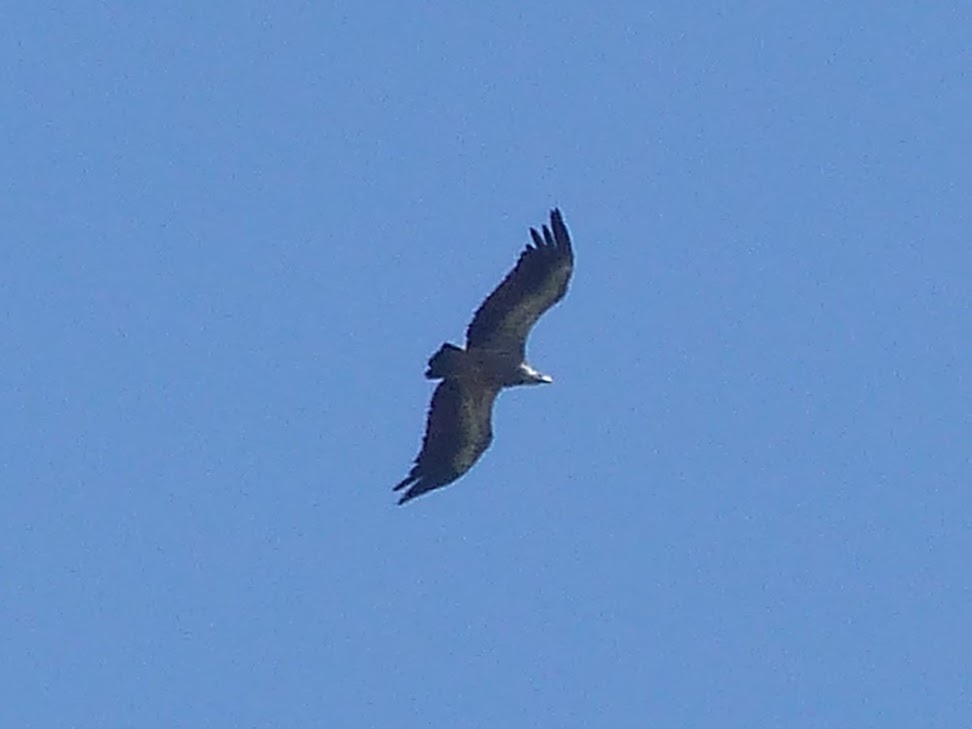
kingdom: Animalia
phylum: Chordata
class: Aves
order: Accipitriformes
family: Accipitridae
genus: Gyps
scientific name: Gyps fulvus
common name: Griffon vulture
